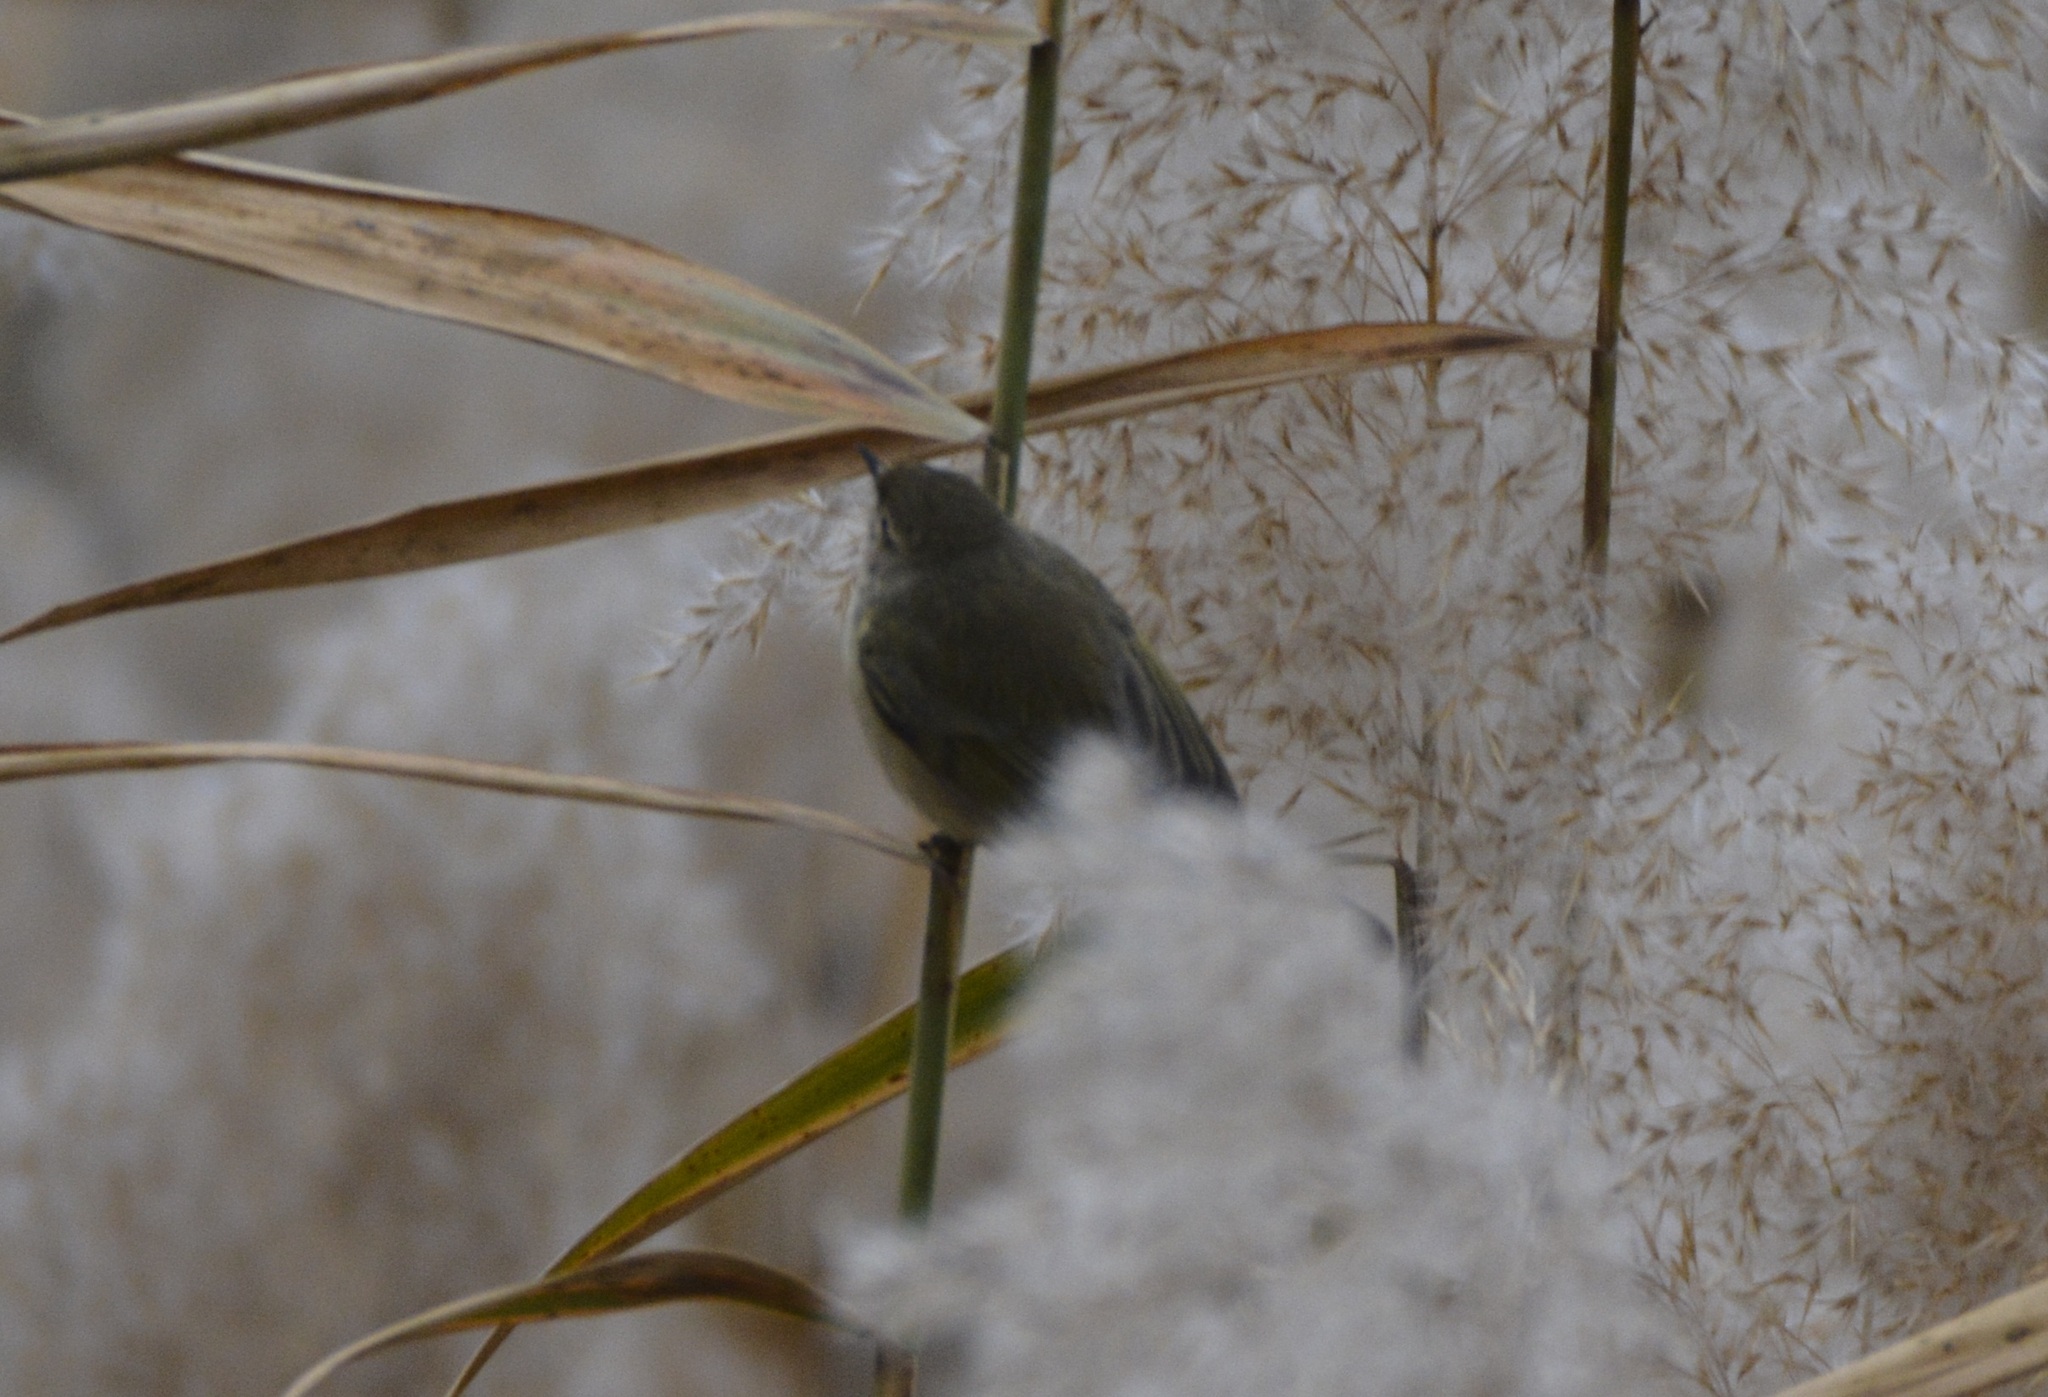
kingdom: Animalia
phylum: Chordata
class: Aves
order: Passeriformes
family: Phylloscopidae
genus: Phylloscopus
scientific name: Phylloscopus collybita
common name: Common chiffchaff
